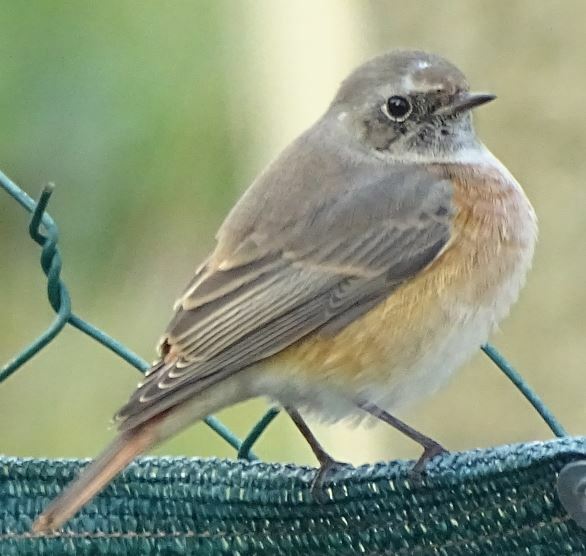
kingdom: Animalia
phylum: Chordata
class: Aves
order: Passeriformes
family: Muscicapidae
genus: Phoenicurus
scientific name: Phoenicurus phoenicurus
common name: Common redstart
